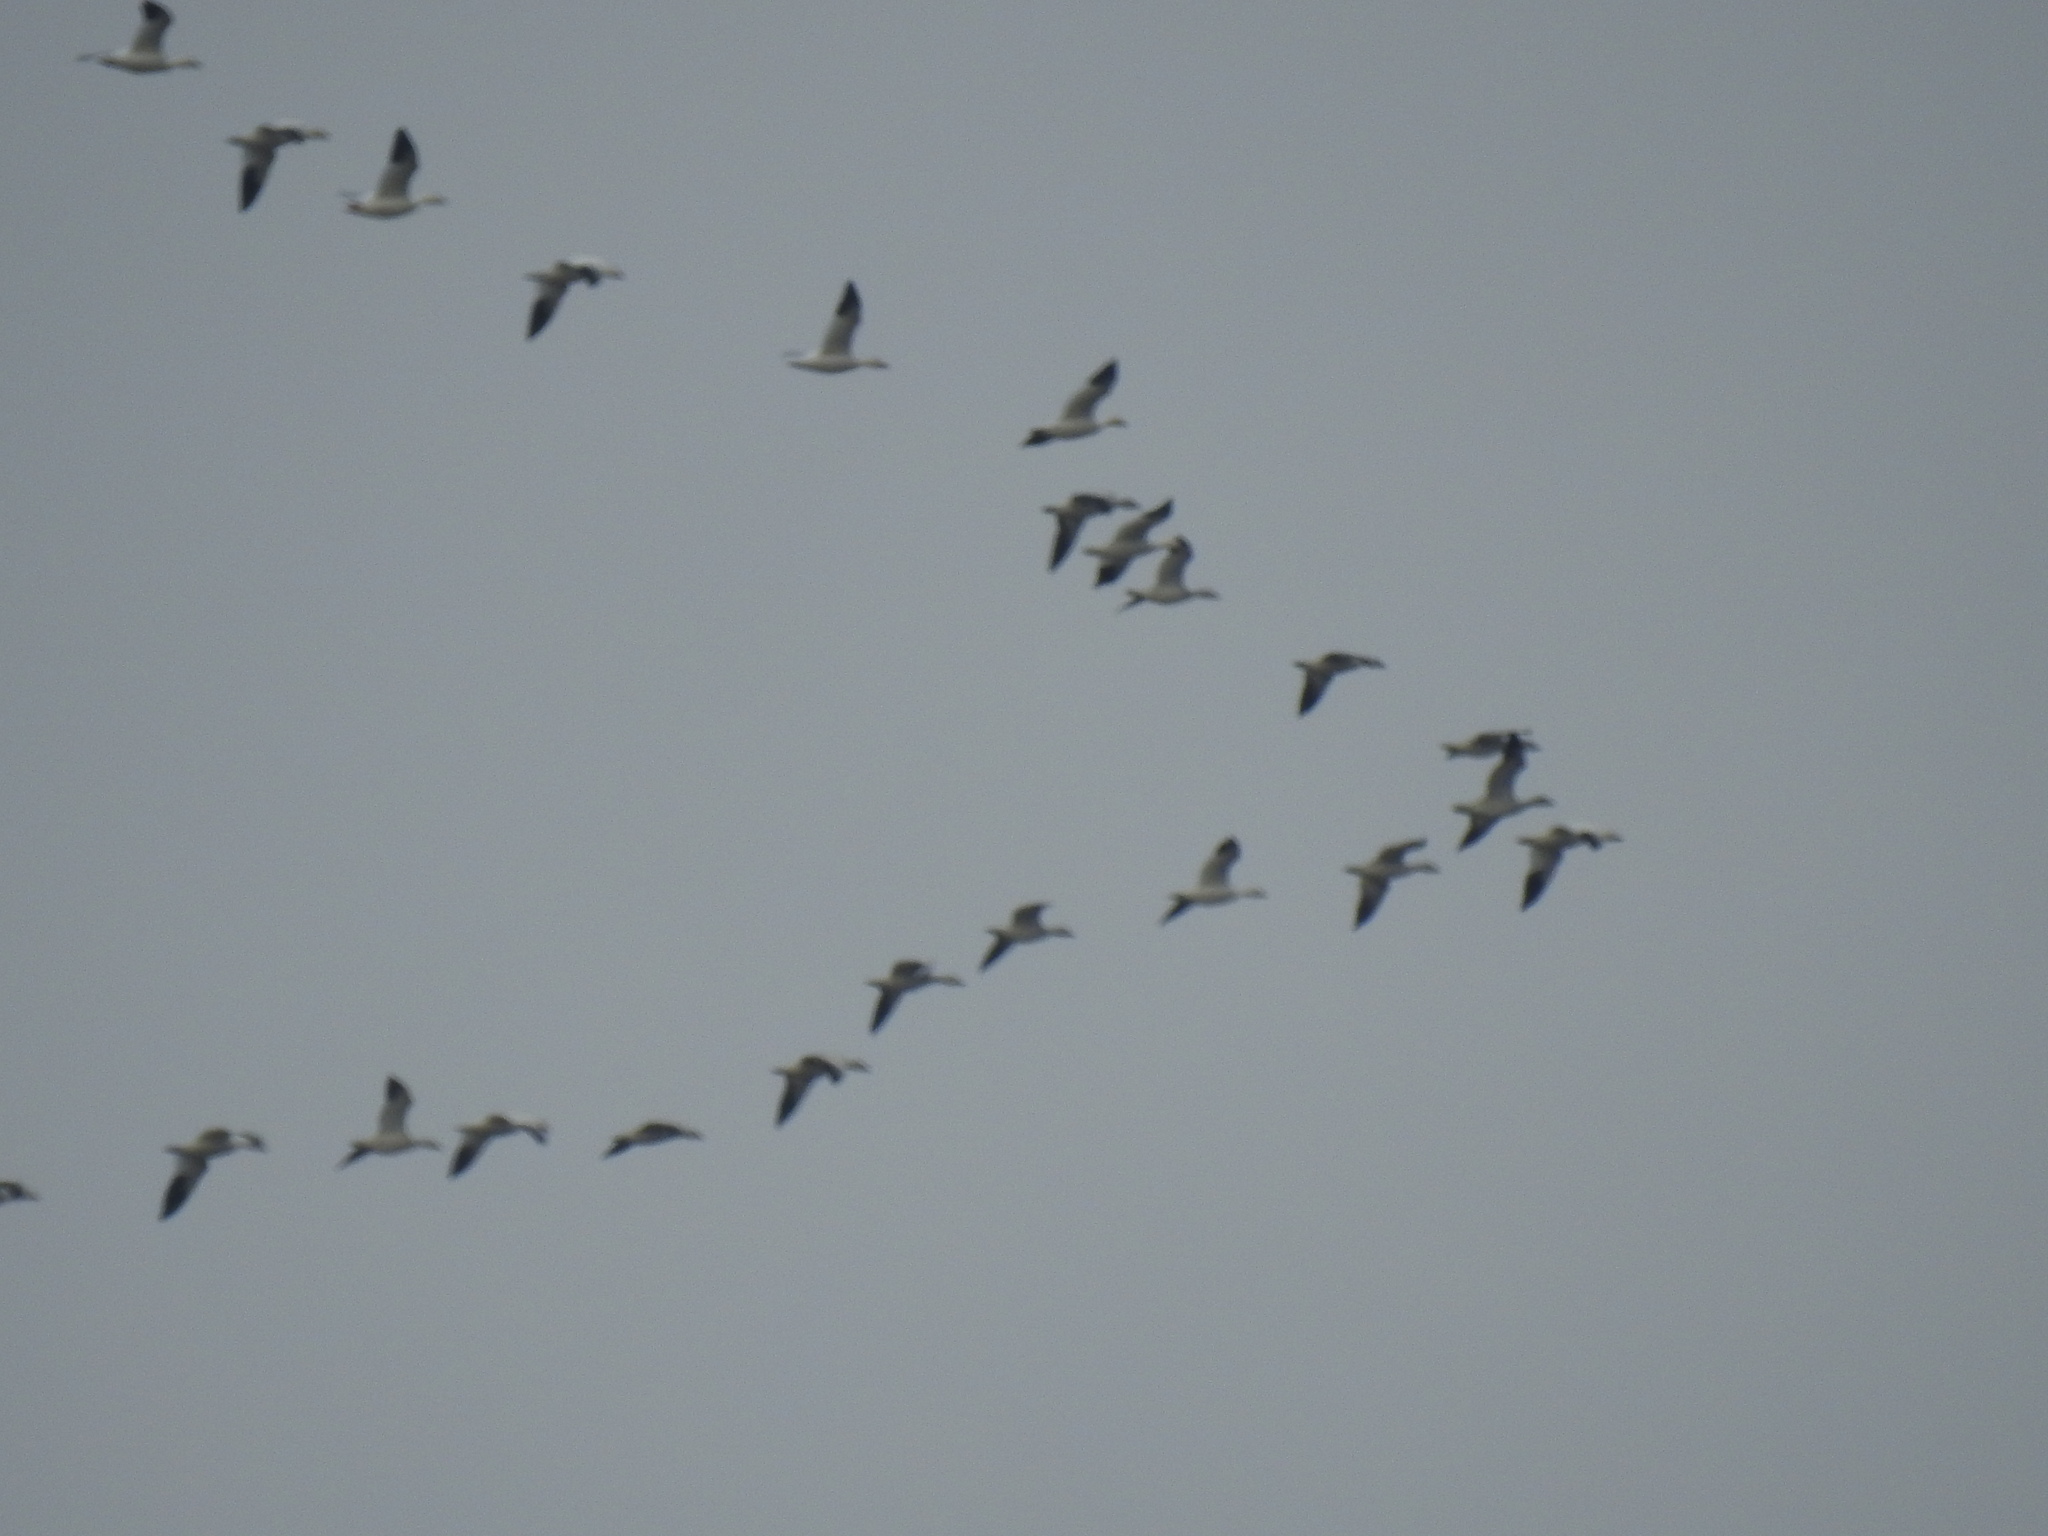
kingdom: Animalia
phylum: Chordata
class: Aves
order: Anseriformes
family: Anatidae
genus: Anser
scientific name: Anser caerulescens
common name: Snow goose
